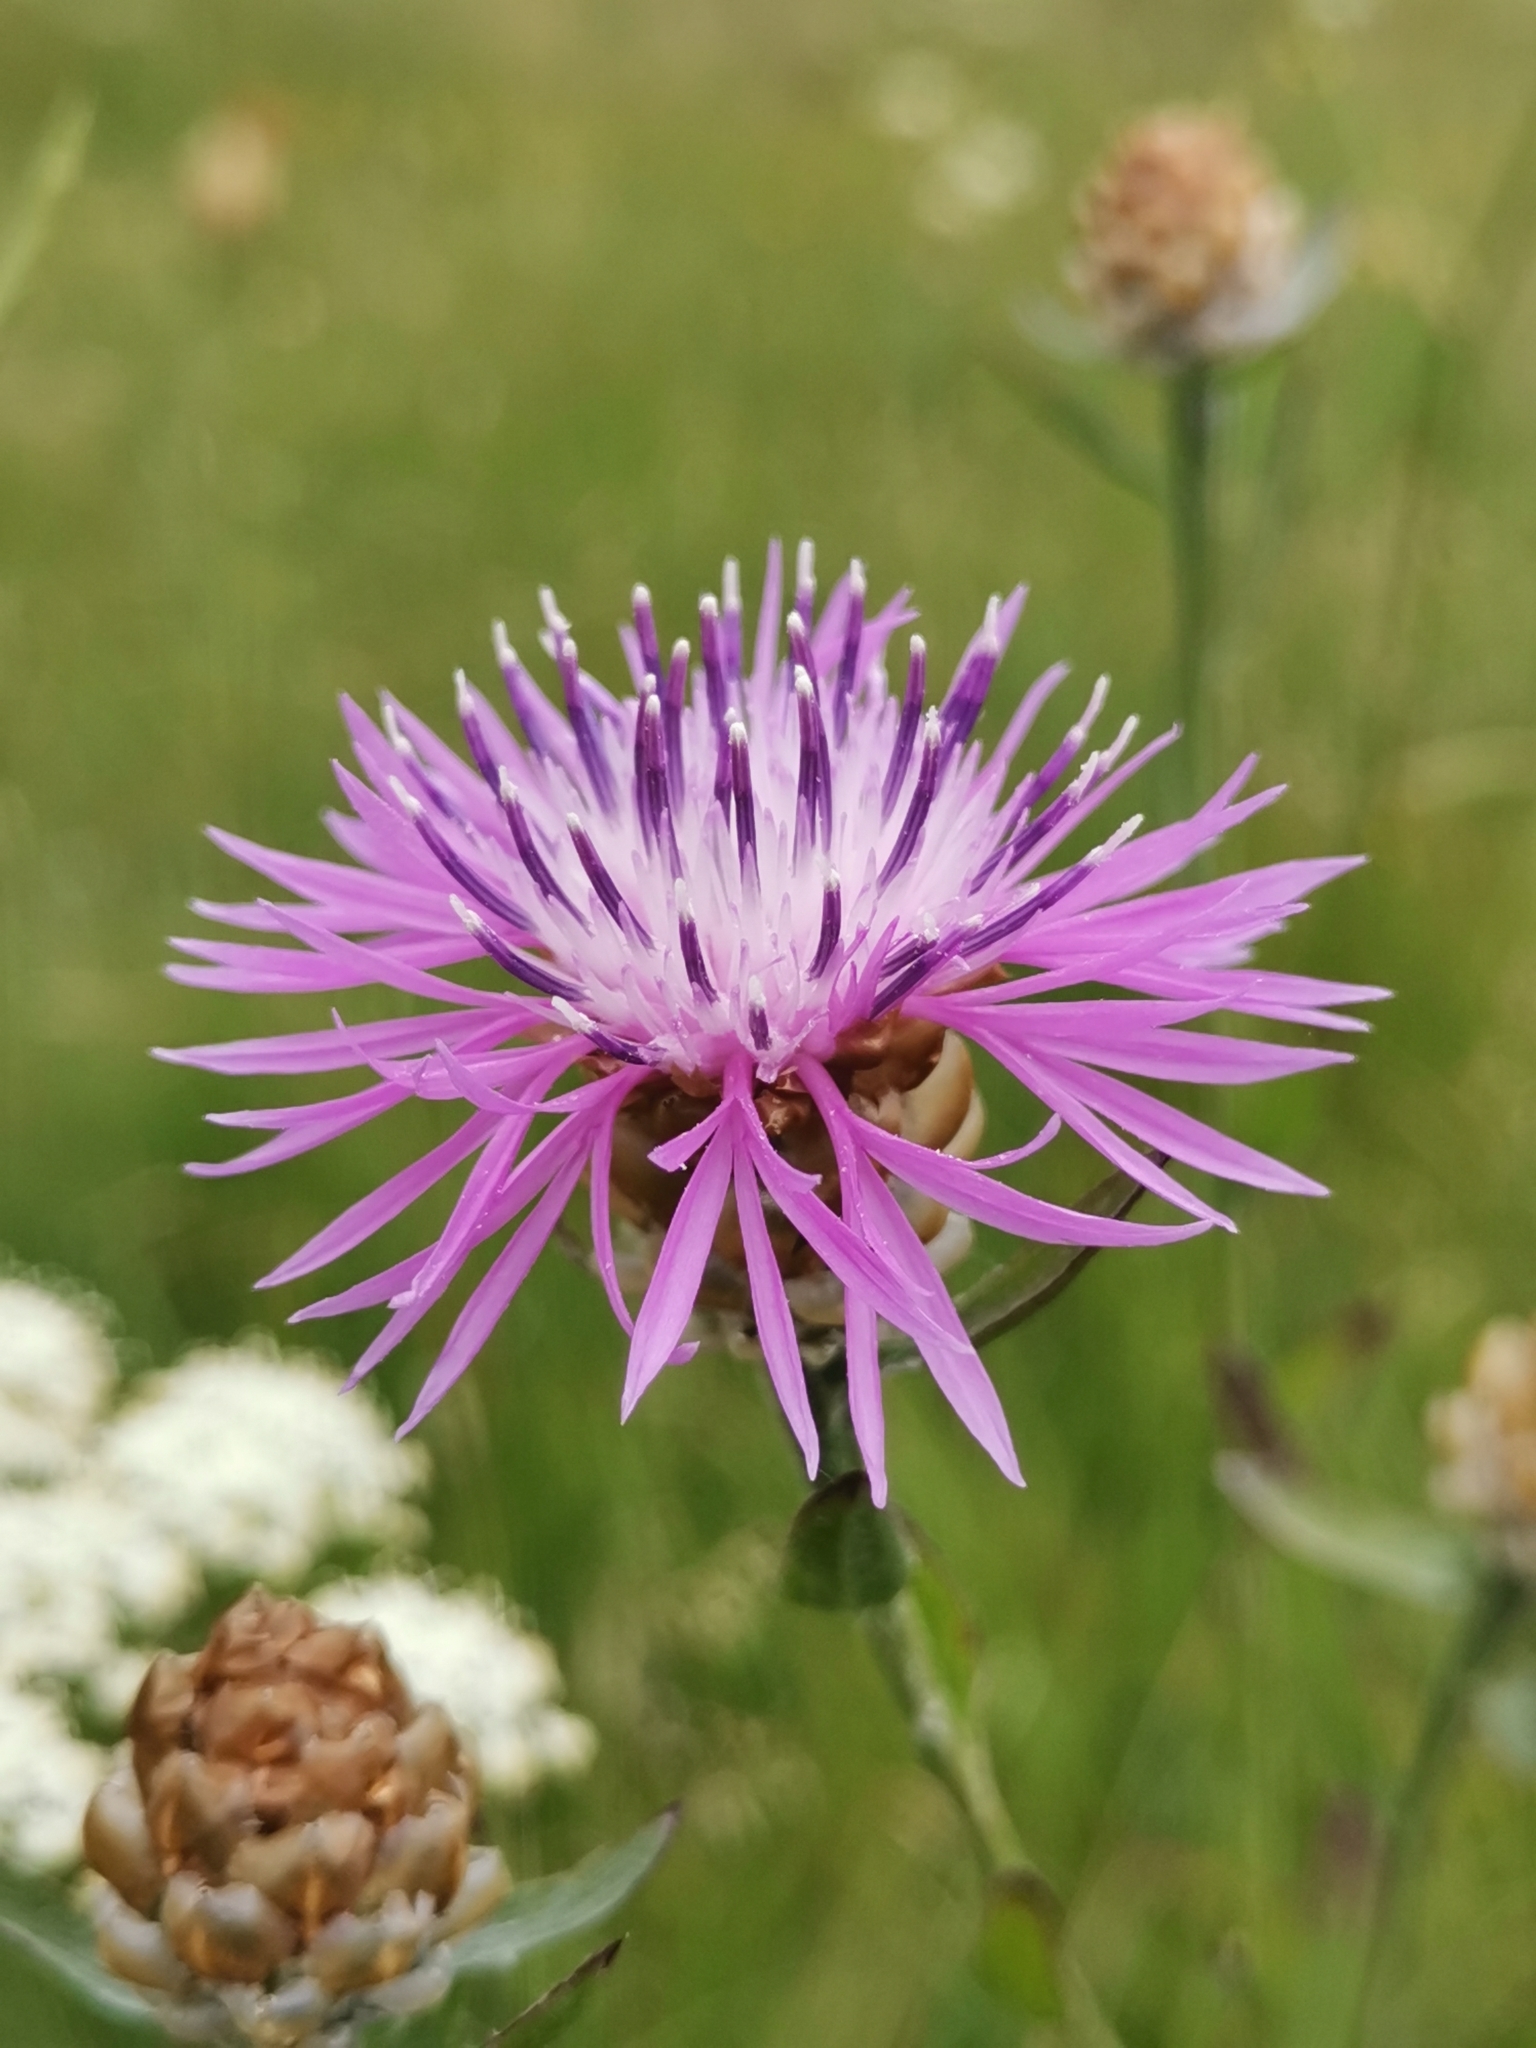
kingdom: Plantae
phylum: Tracheophyta
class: Magnoliopsida
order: Asterales
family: Asteraceae
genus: Centaurea
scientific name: Centaurea jacea
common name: Brown knapweed
